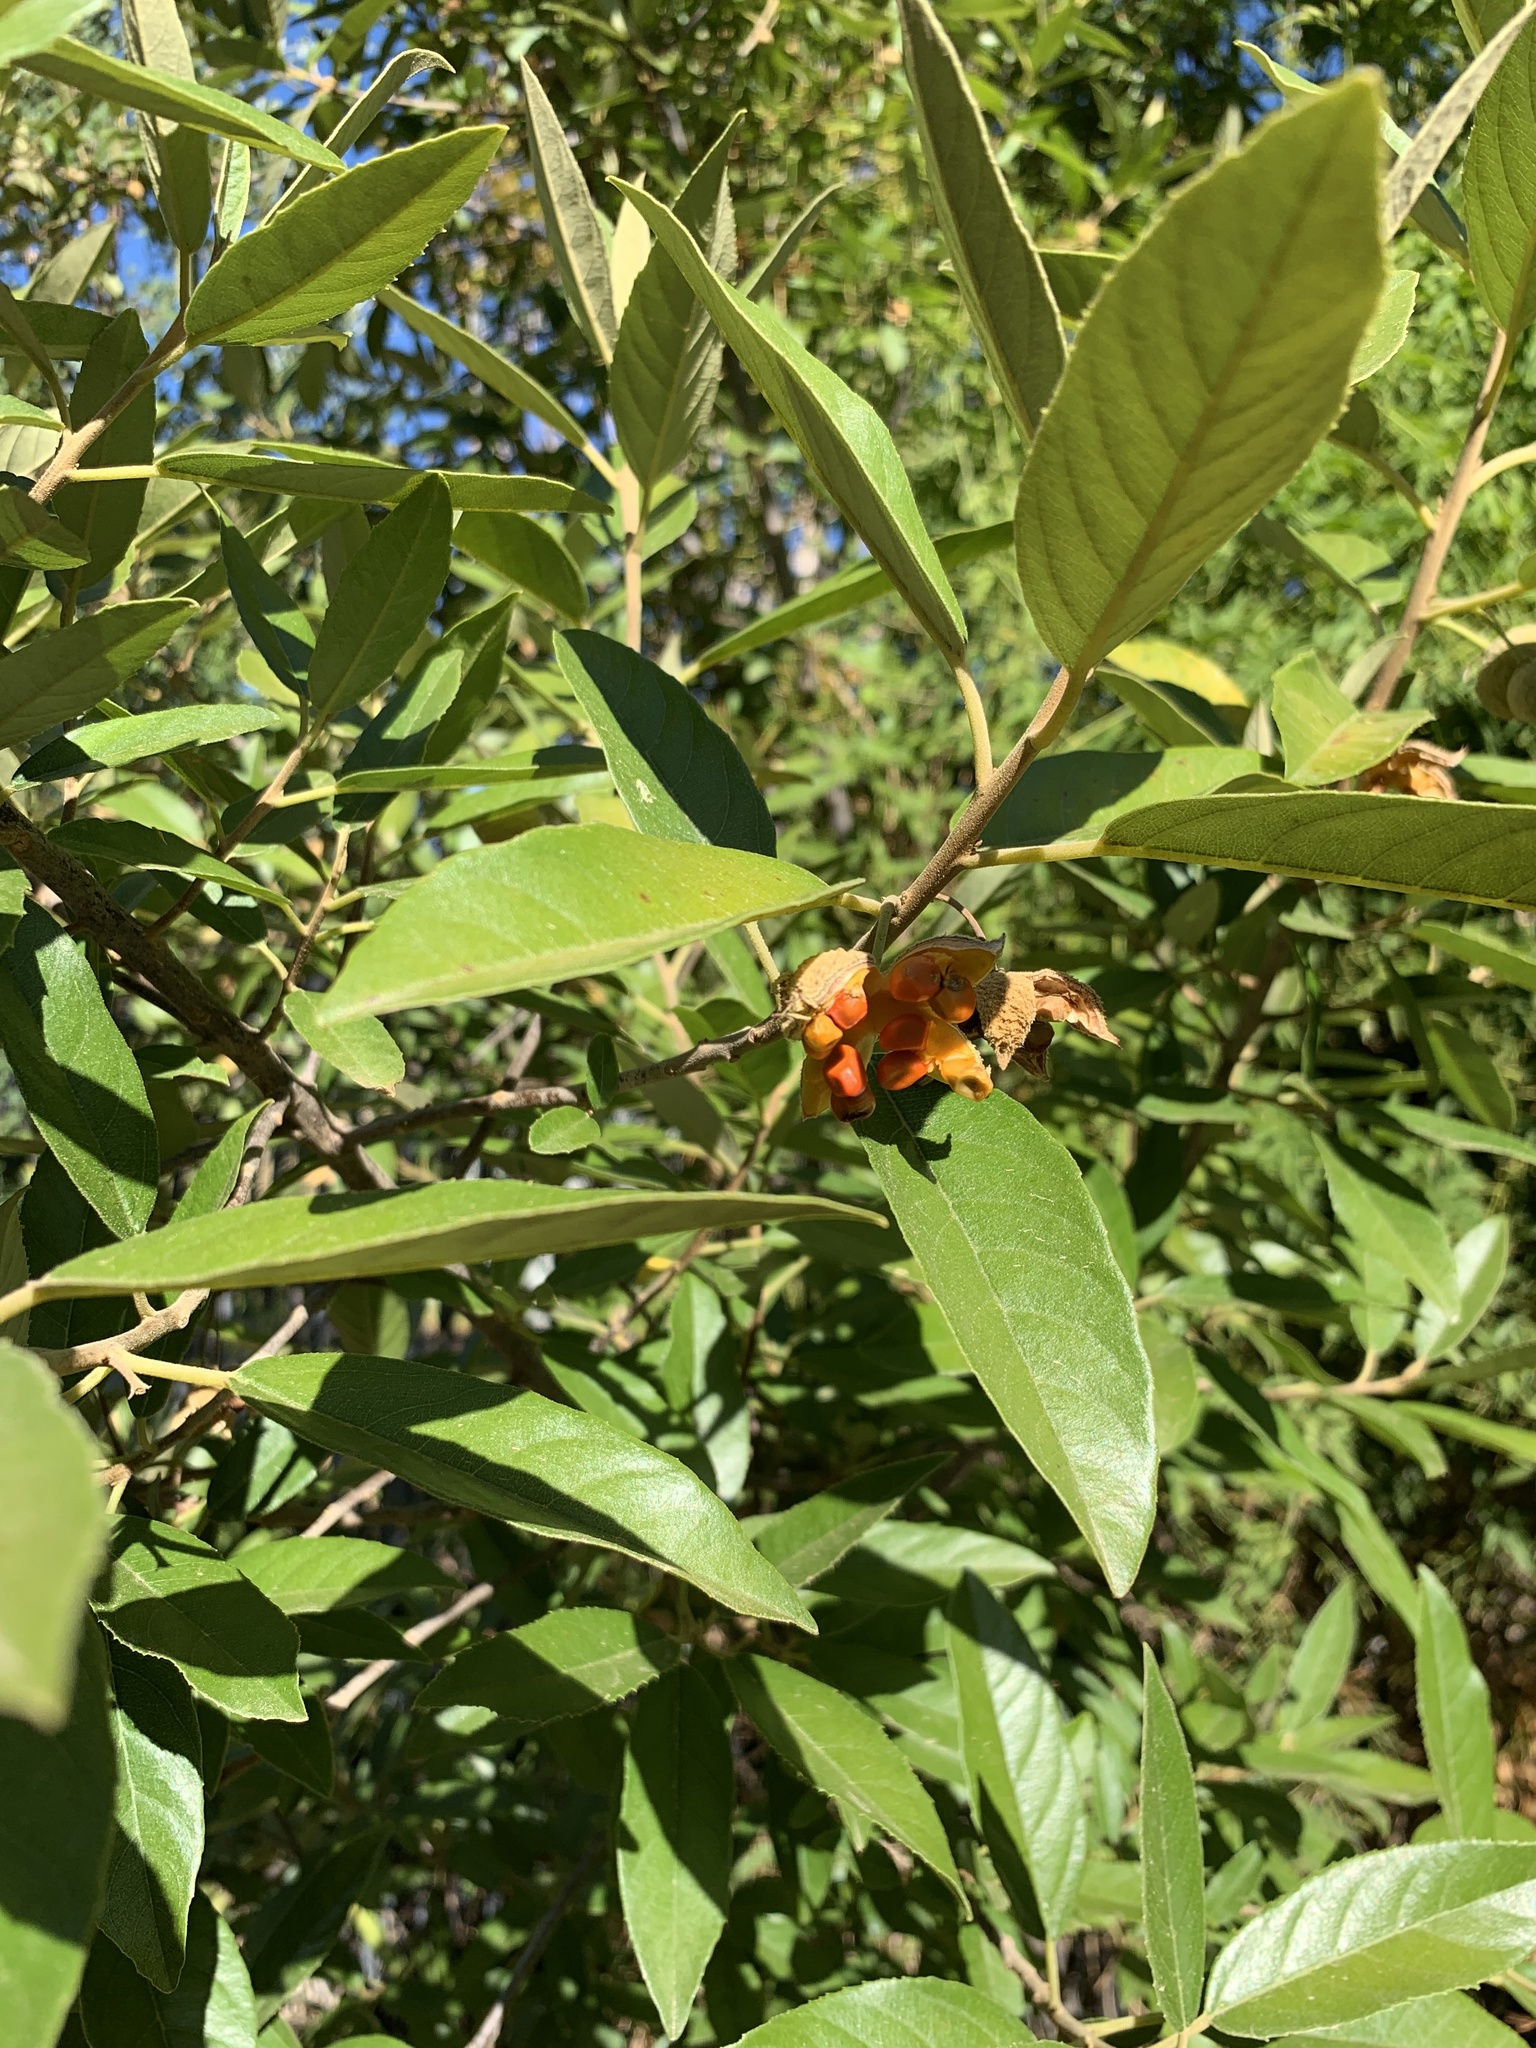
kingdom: Plantae
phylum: Tracheophyta
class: Magnoliopsida
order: Malpighiales
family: Achariaceae
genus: Kiggelaria
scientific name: Kiggelaria africana
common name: Wild peach
